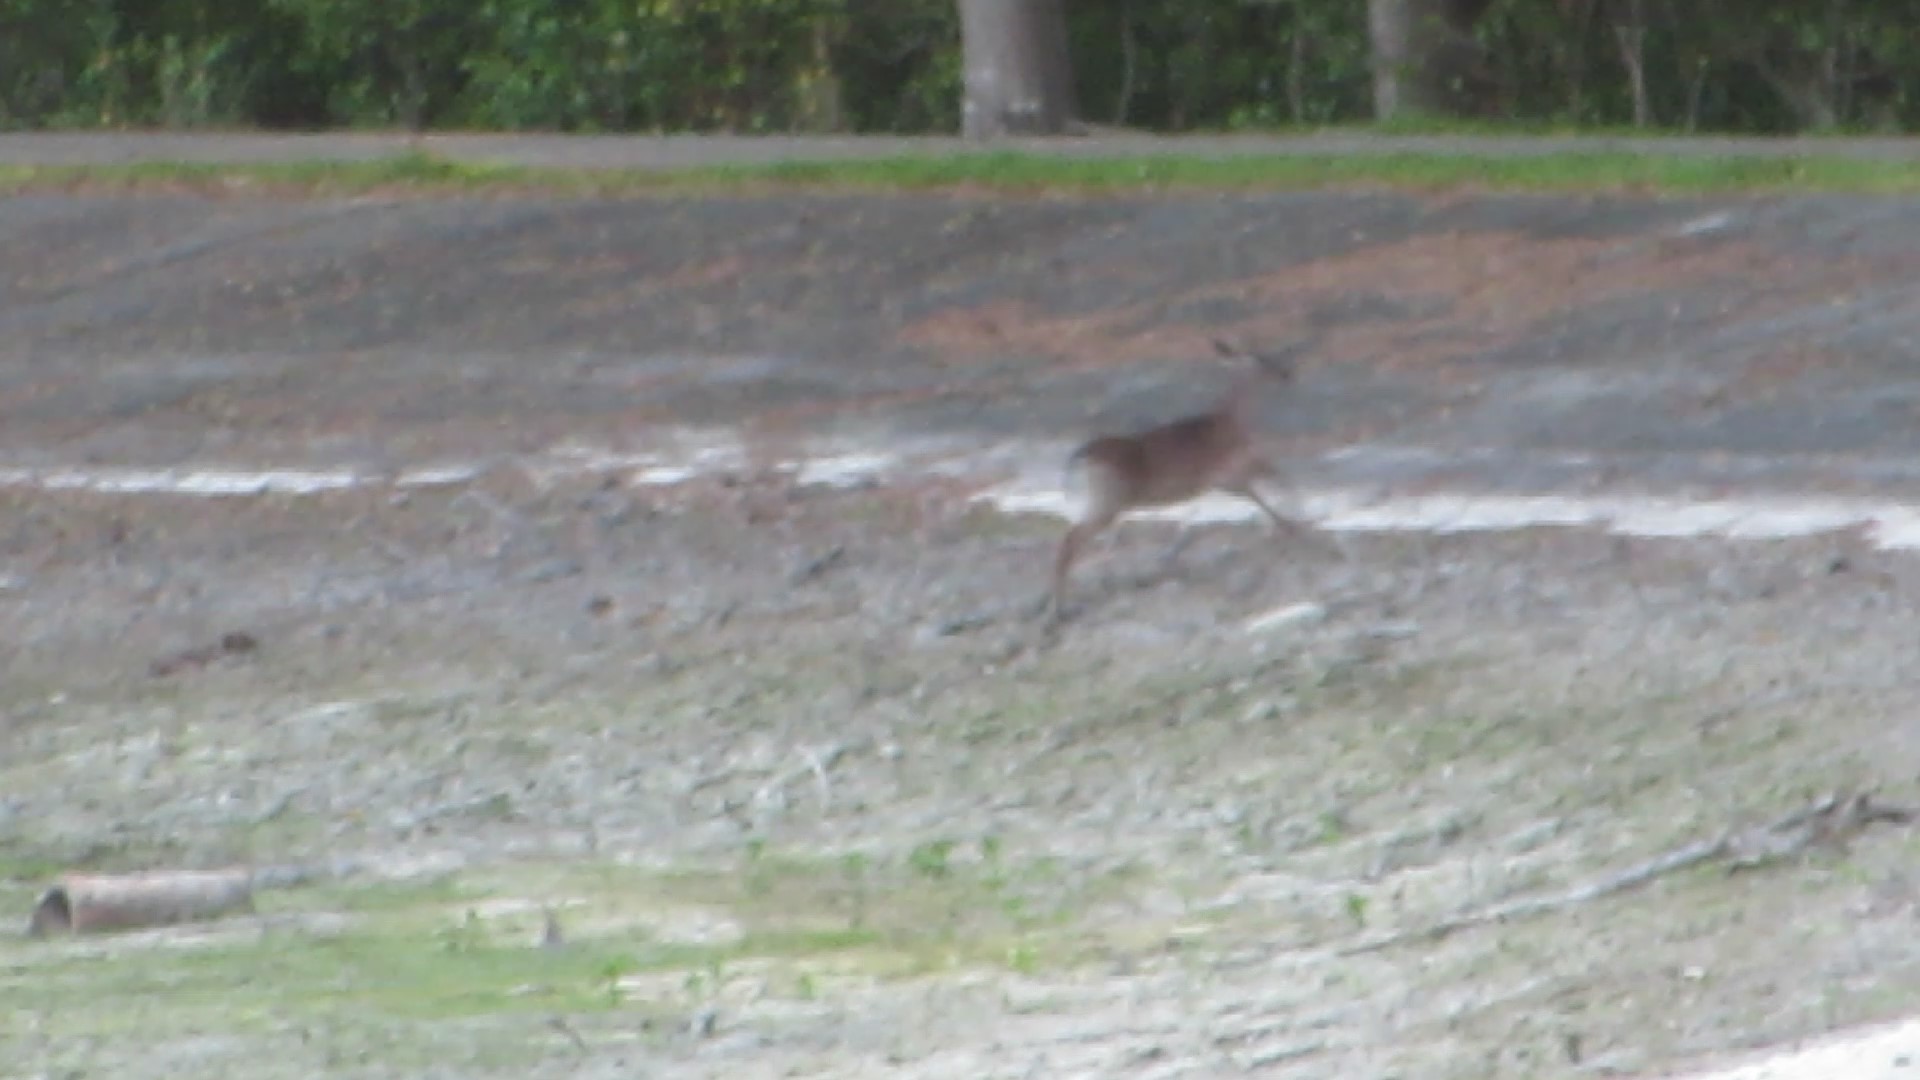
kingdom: Animalia
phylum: Chordata
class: Mammalia
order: Artiodactyla
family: Cervidae
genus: Odocoileus
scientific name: Odocoileus virginianus
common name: White-tailed deer
